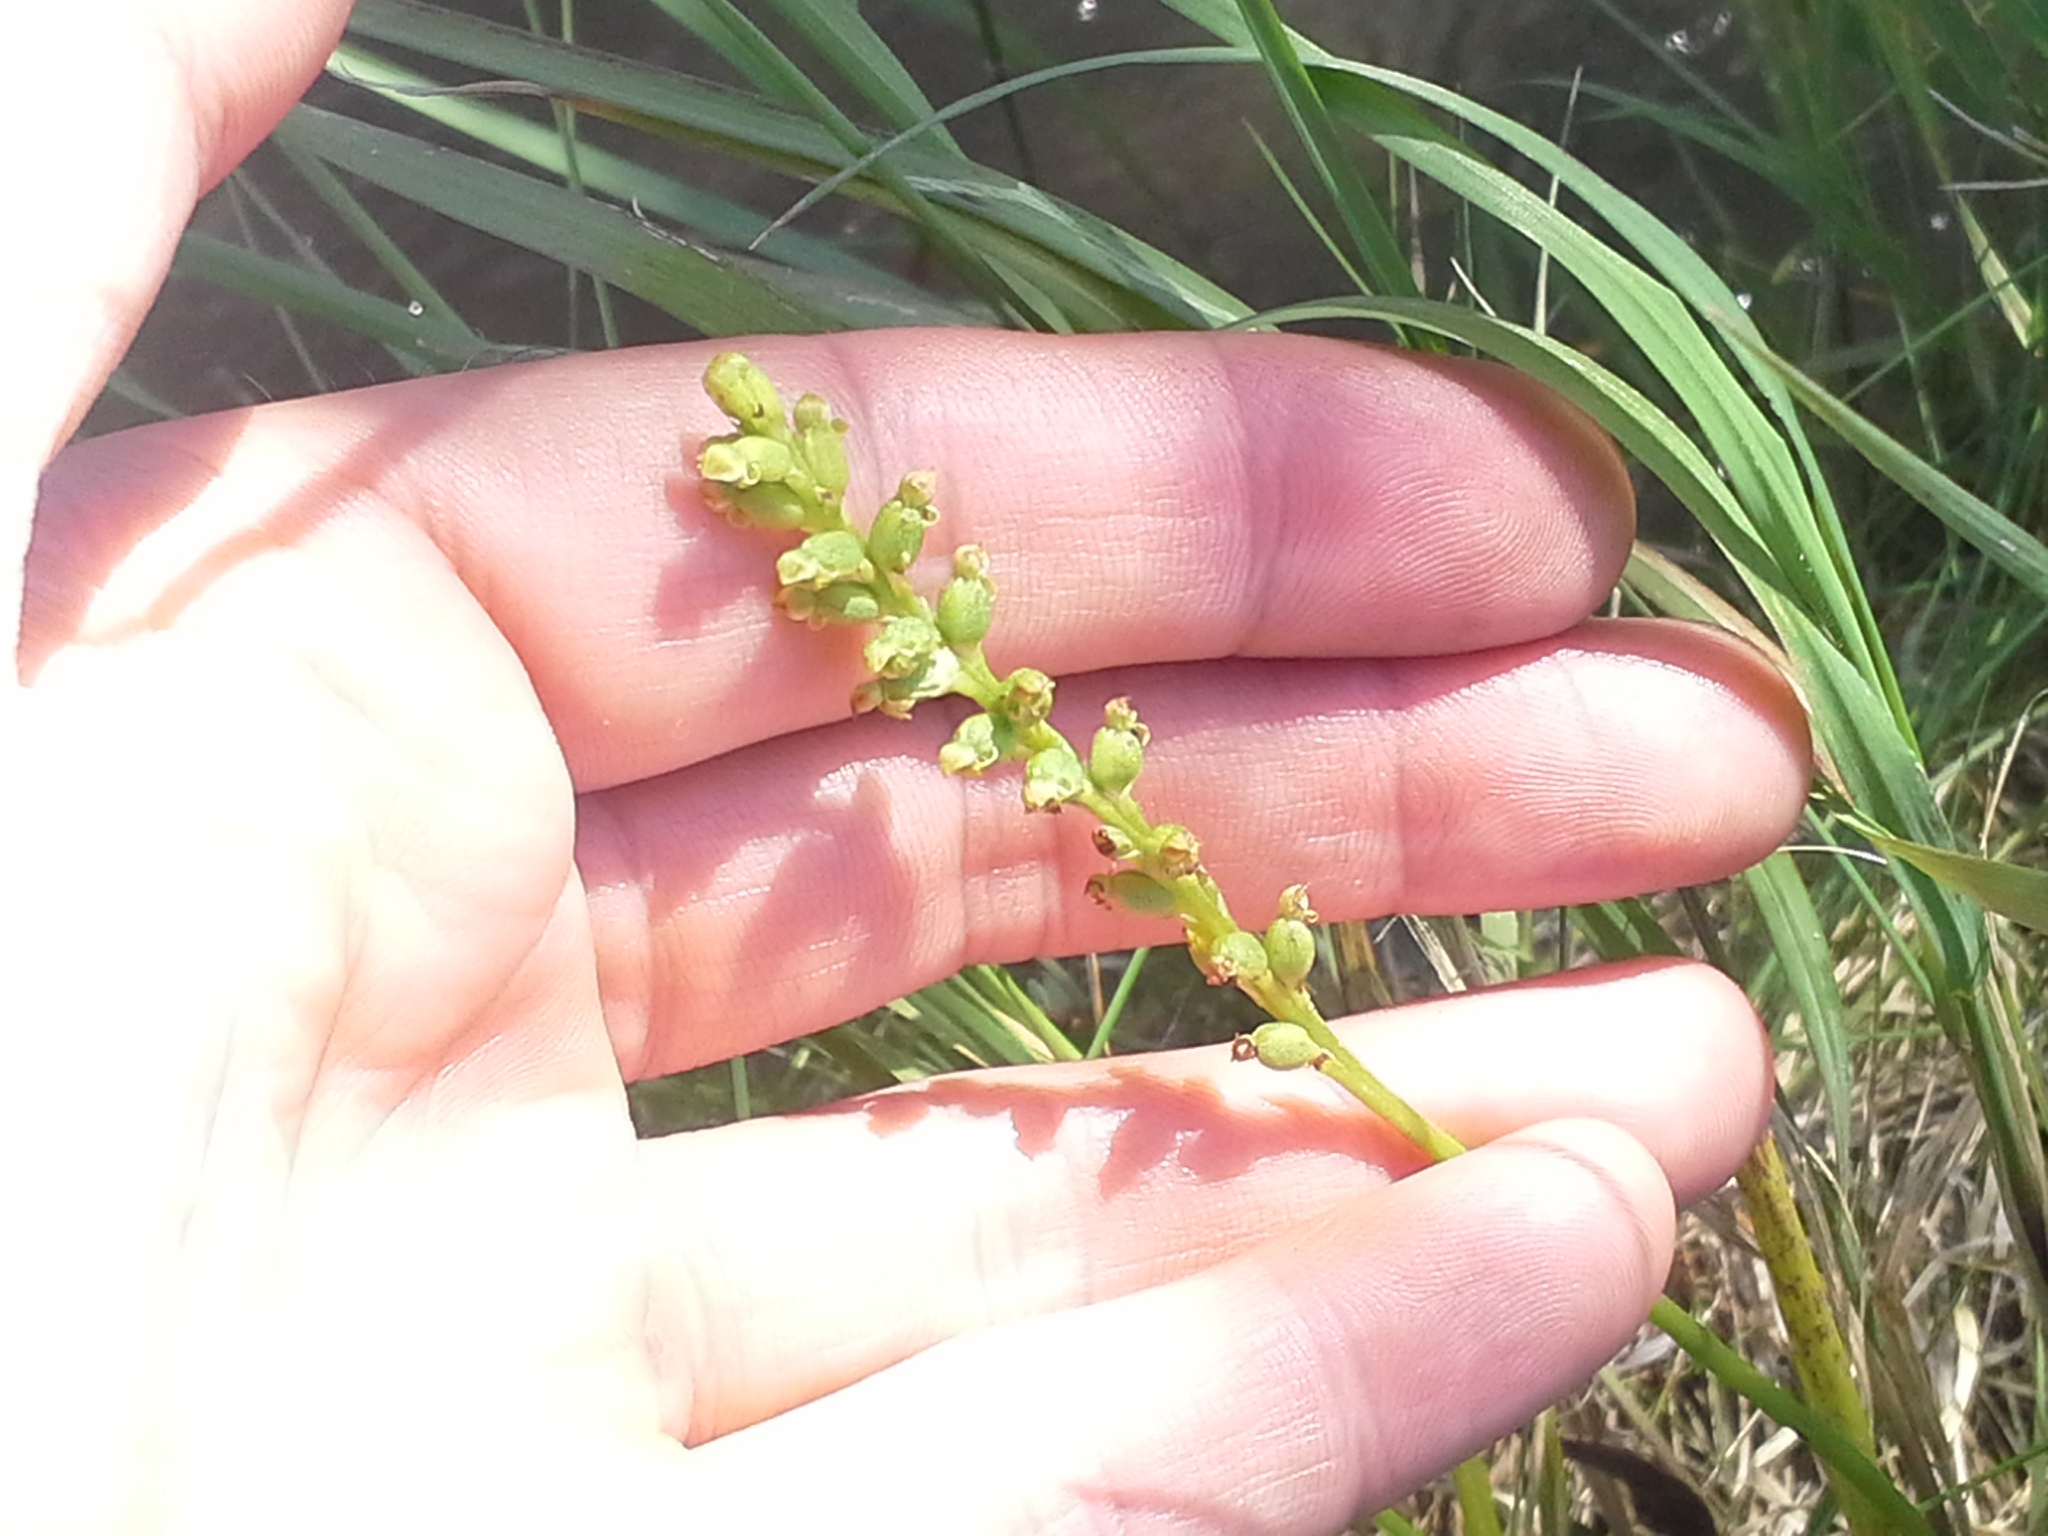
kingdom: Plantae
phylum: Tracheophyta
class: Liliopsida
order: Asparagales
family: Orchidaceae
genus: Microtis
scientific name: Microtis unifolia
